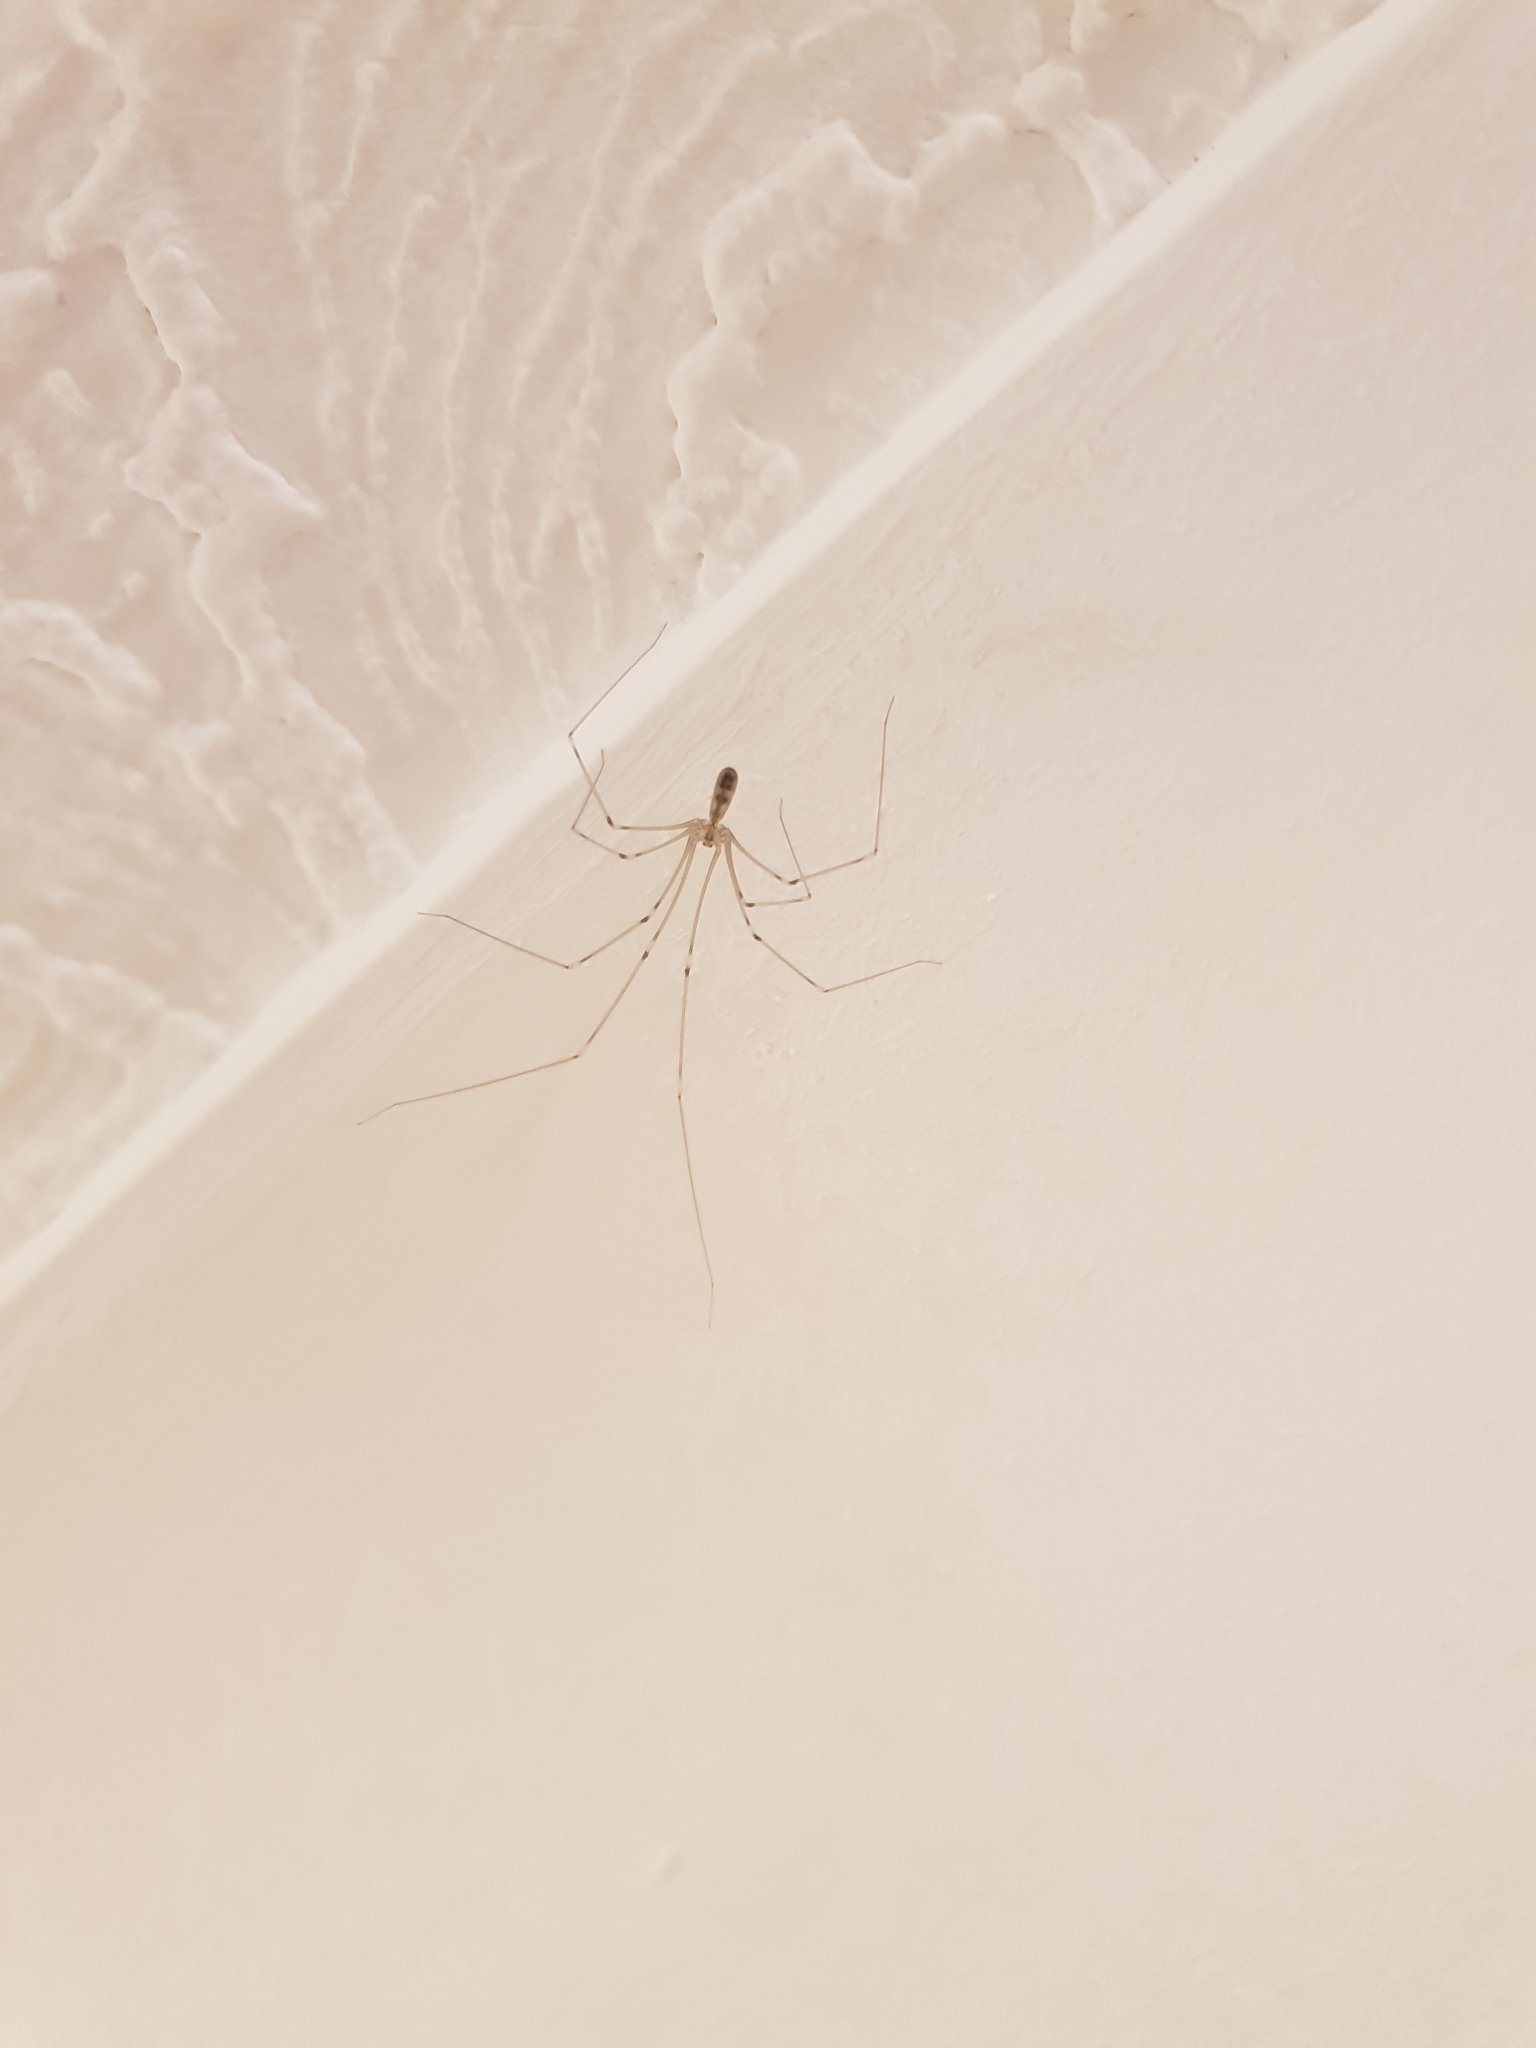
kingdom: Animalia
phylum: Arthropoda
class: Arachnida
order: Araneae
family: Pholcidae
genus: Pholcus
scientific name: Pholcus phalangioides
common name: Longbodied cellar spider
